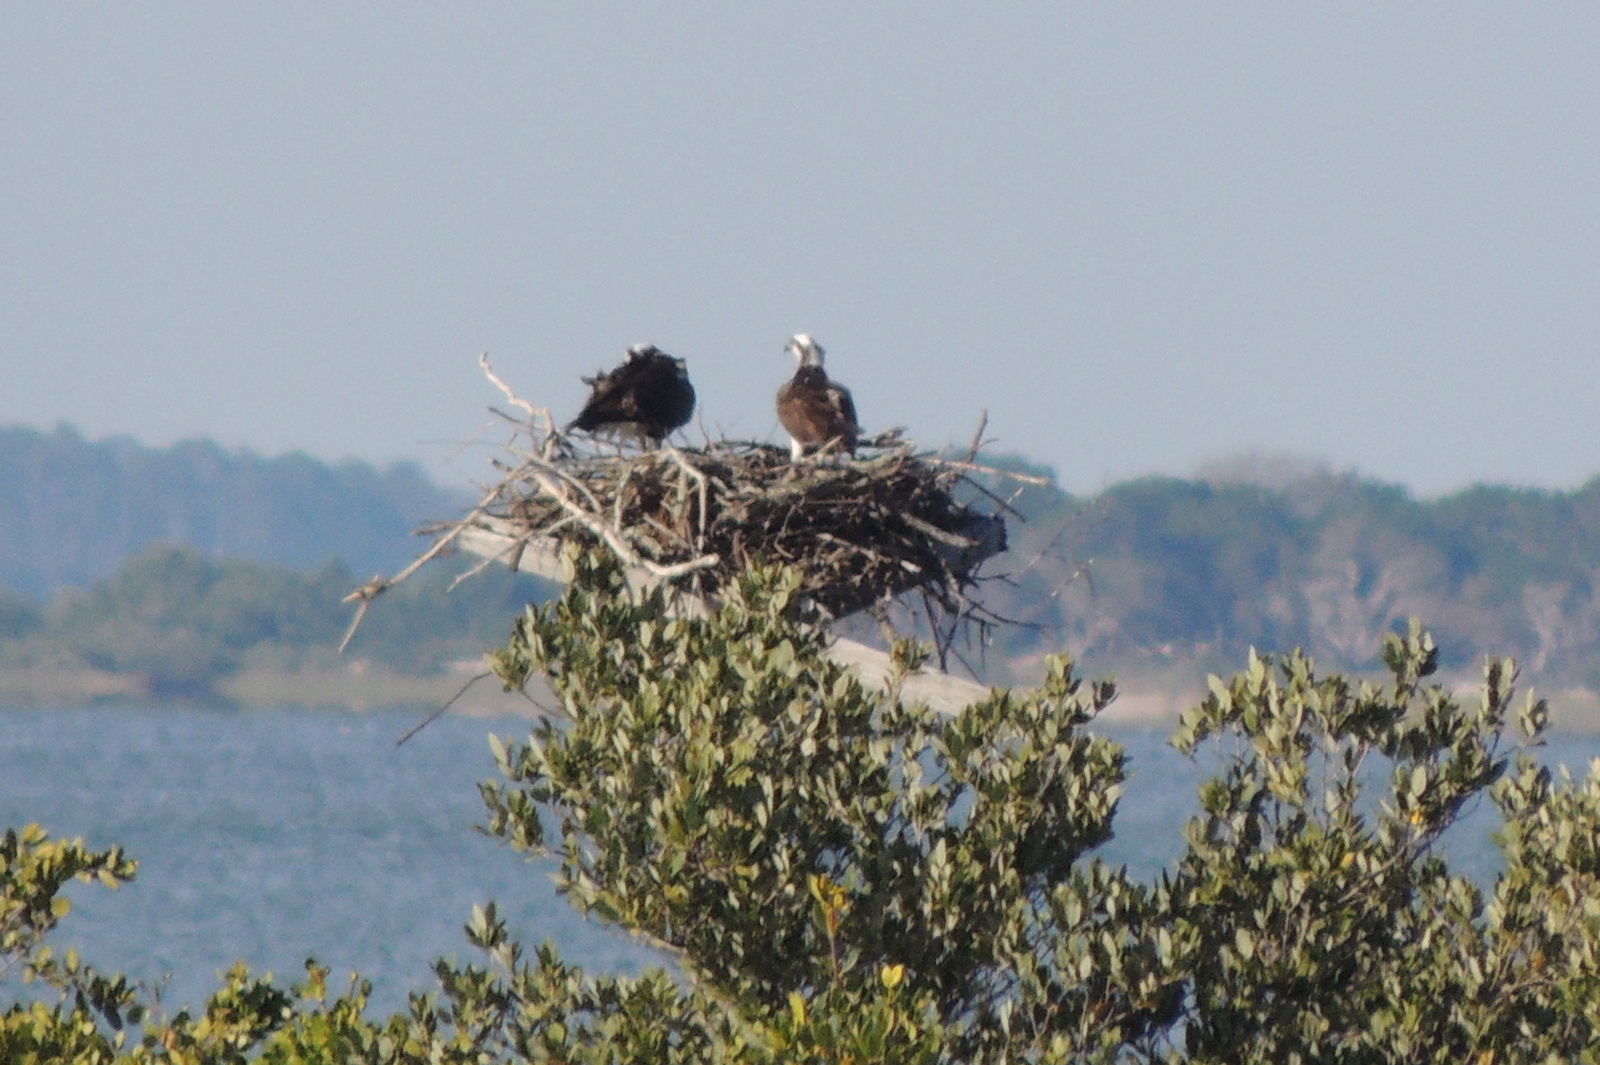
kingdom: Animalia
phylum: Chordata
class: Aves
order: Accipitriformes
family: Pandionidae
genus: Pandion
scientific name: Pandion haliaetus
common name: Osprey
